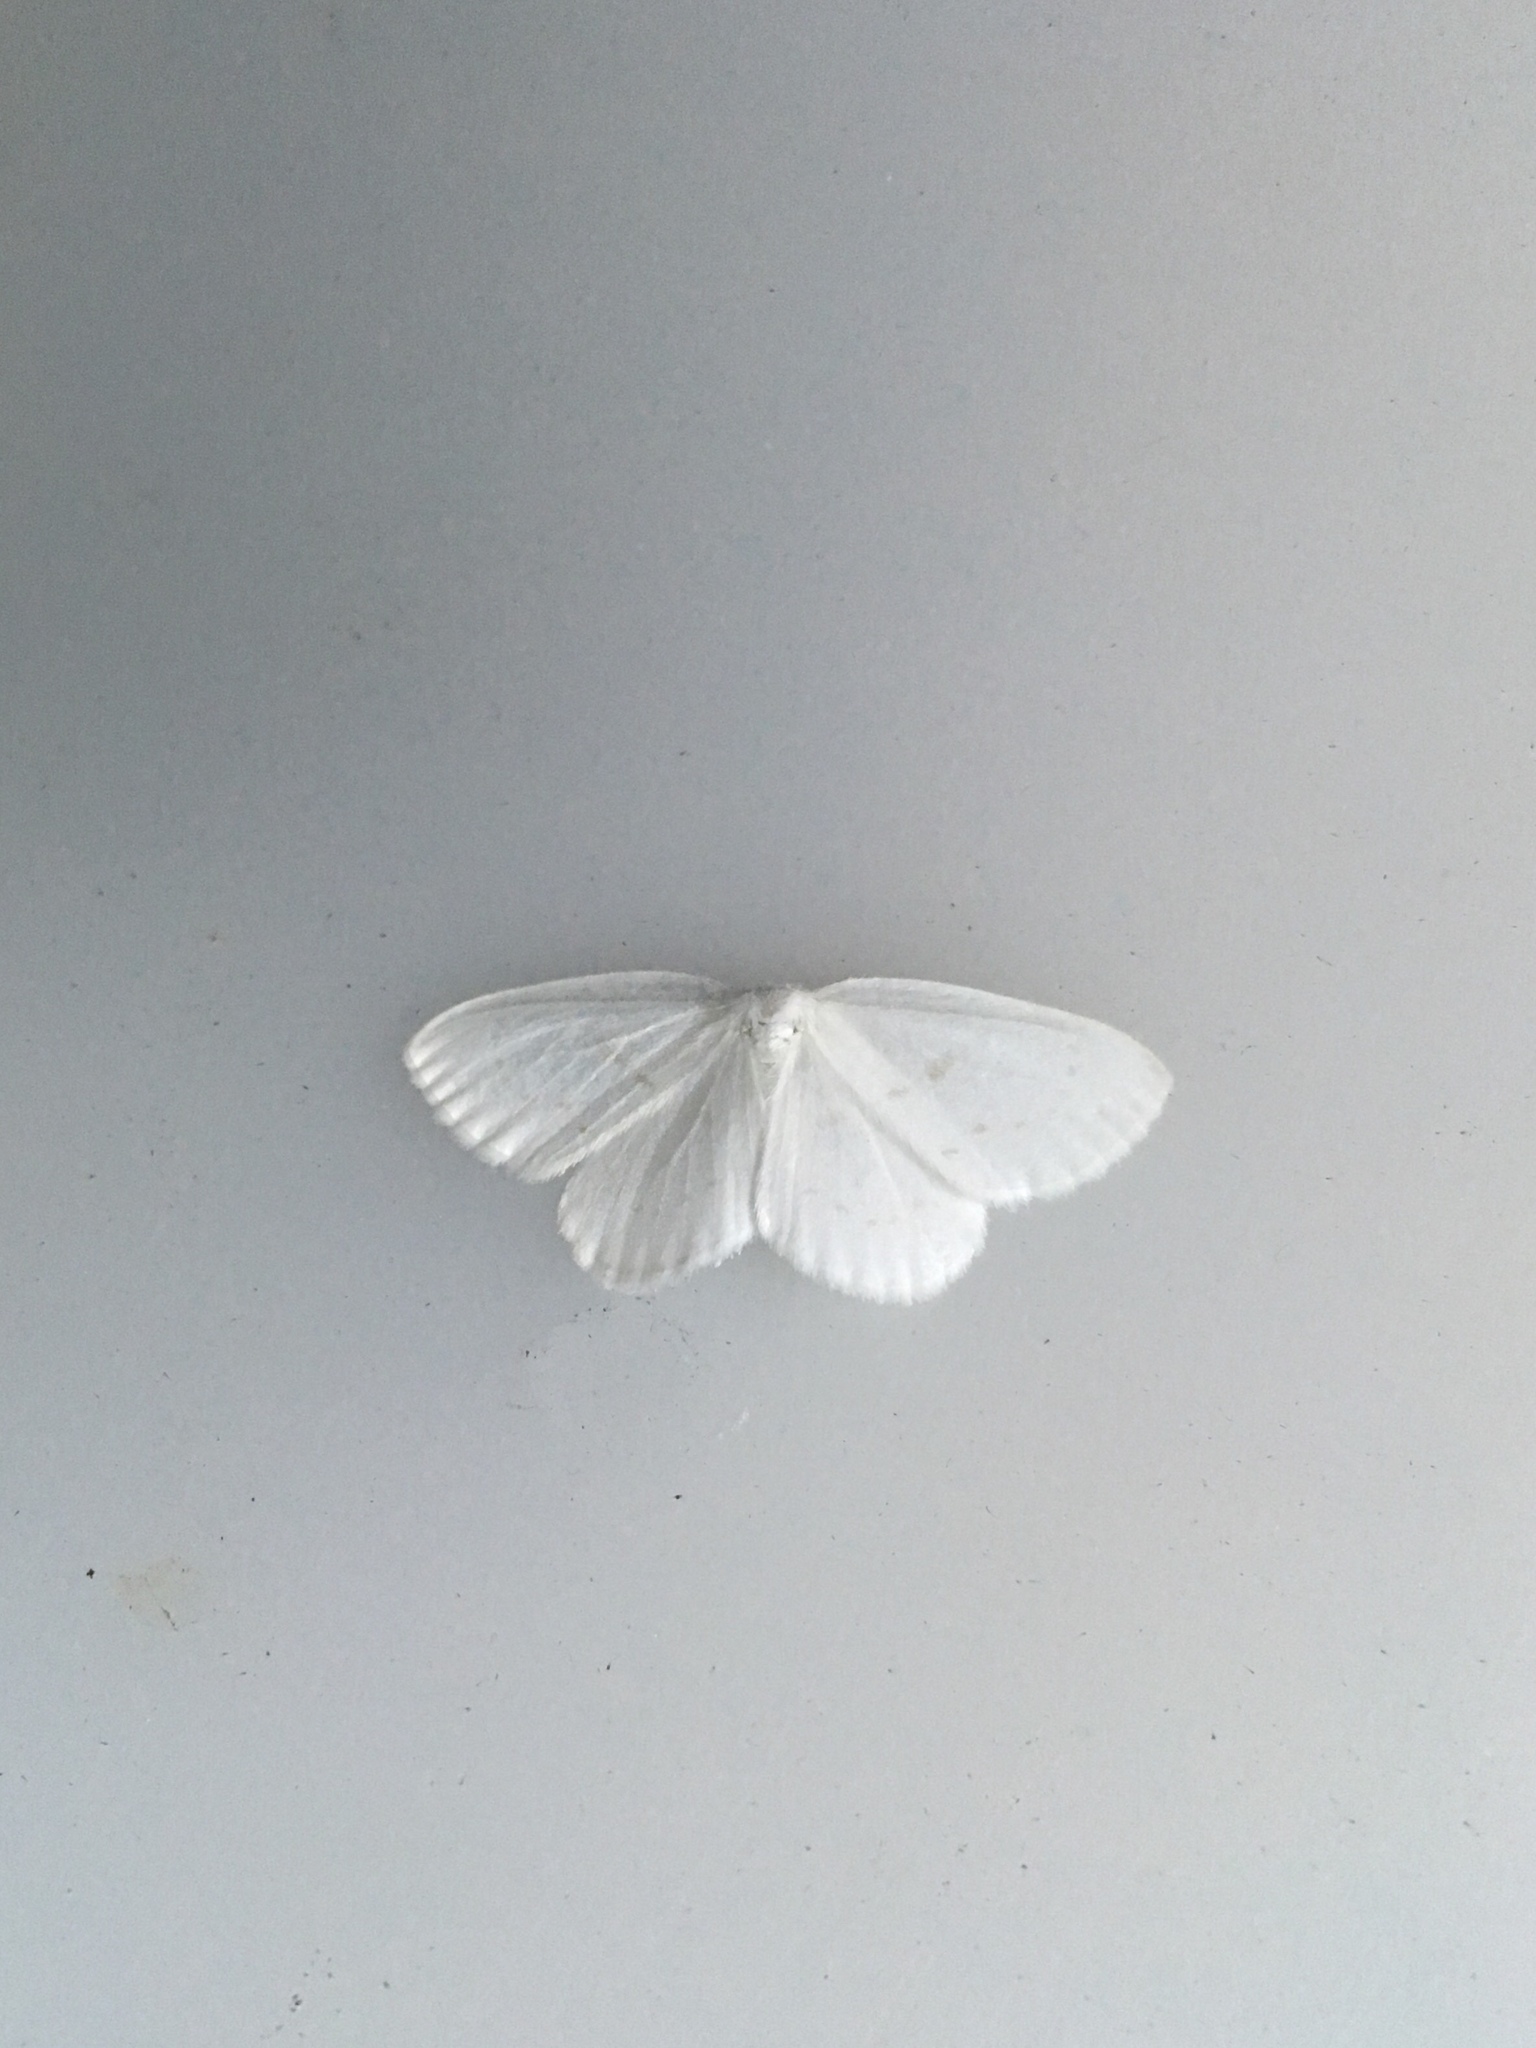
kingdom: Animalia
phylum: Arthropoda
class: Insecta
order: Lepidoptera
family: Drepanidae
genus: Eudeilinia
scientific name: Eudeilinia herminiata
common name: Northern eudeilinea moth
